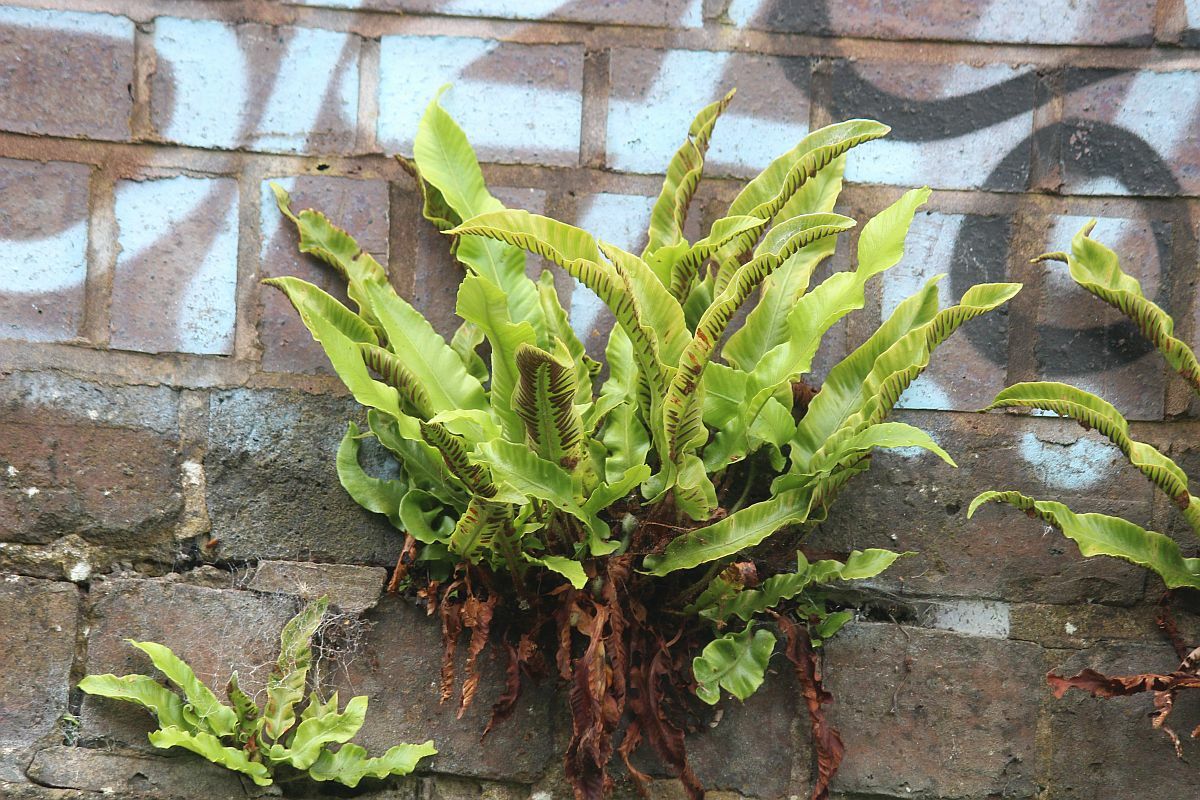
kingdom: Plantae
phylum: Tracheophyta
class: Polypodiopsida
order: Polypodiales
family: Aspleniaceae
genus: Asplenium
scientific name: Asplenium scolopendrium
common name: Hart's-tongue fern
